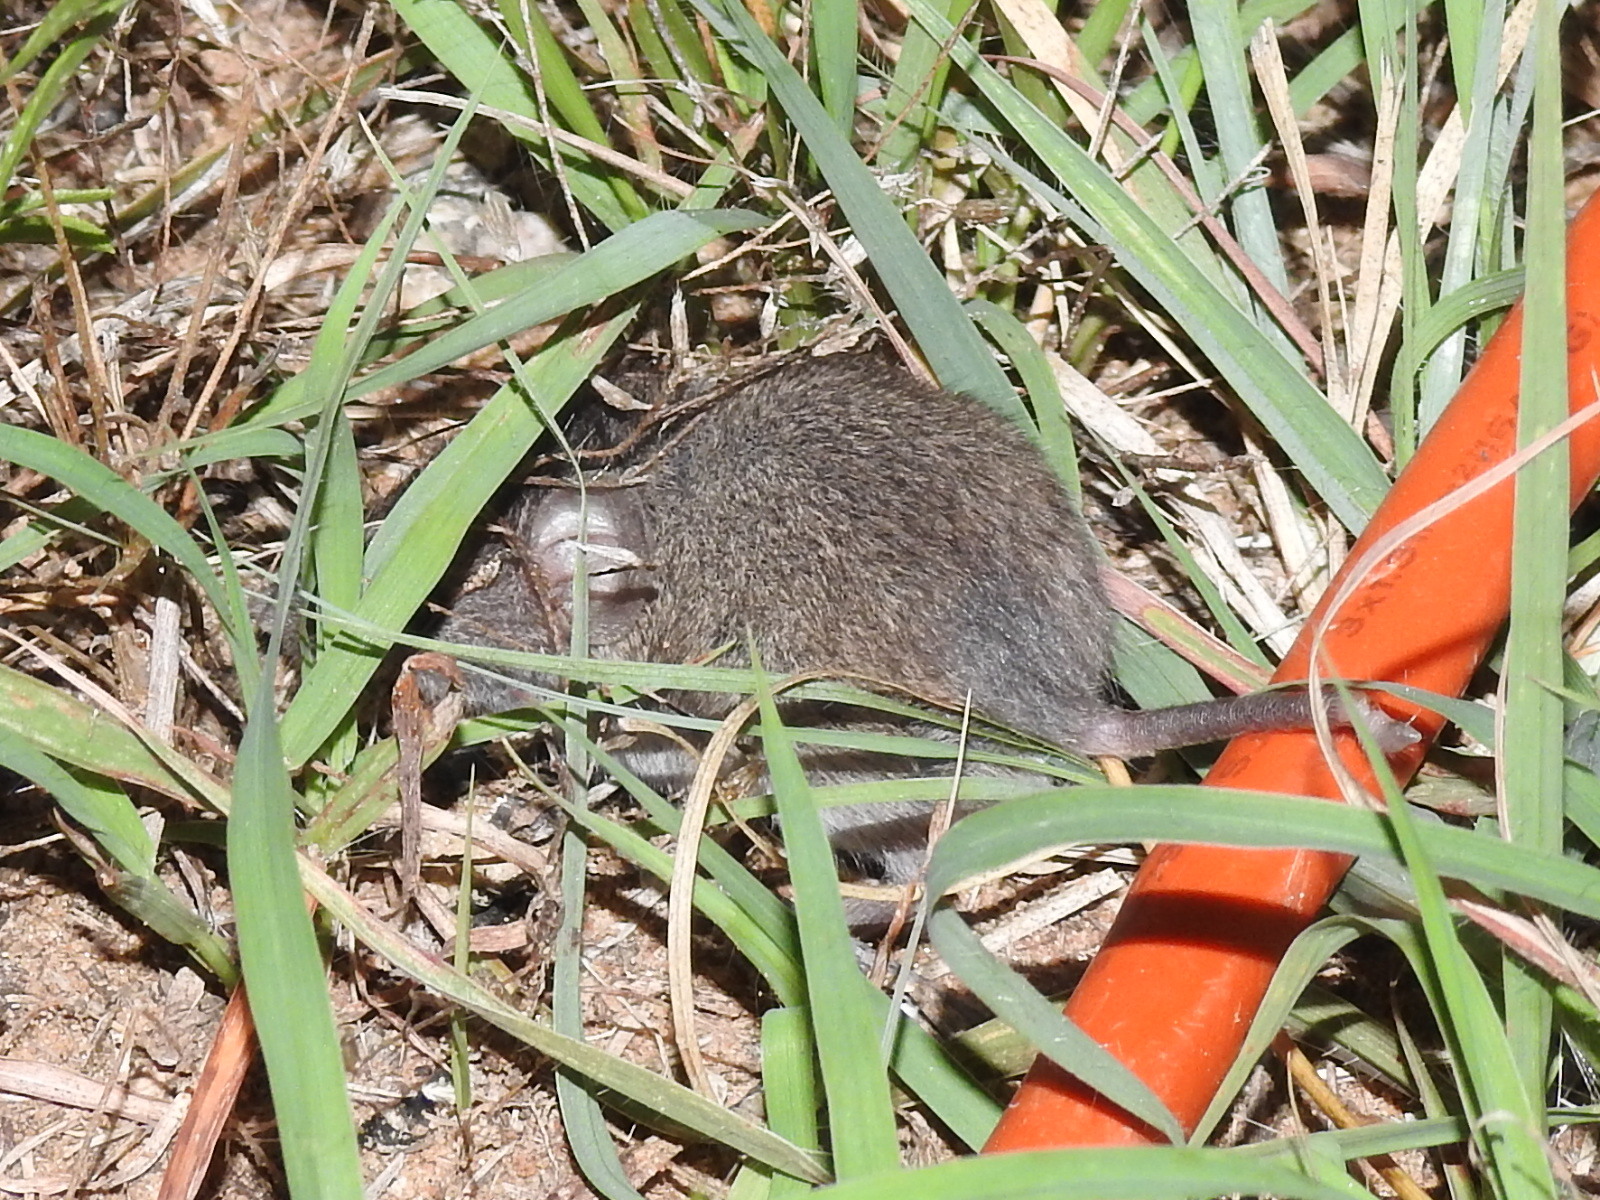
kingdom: Animalia
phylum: Chordata
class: Mammalia
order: Rodentia
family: Muridae
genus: Mus
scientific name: Mus musculus
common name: House mouse
